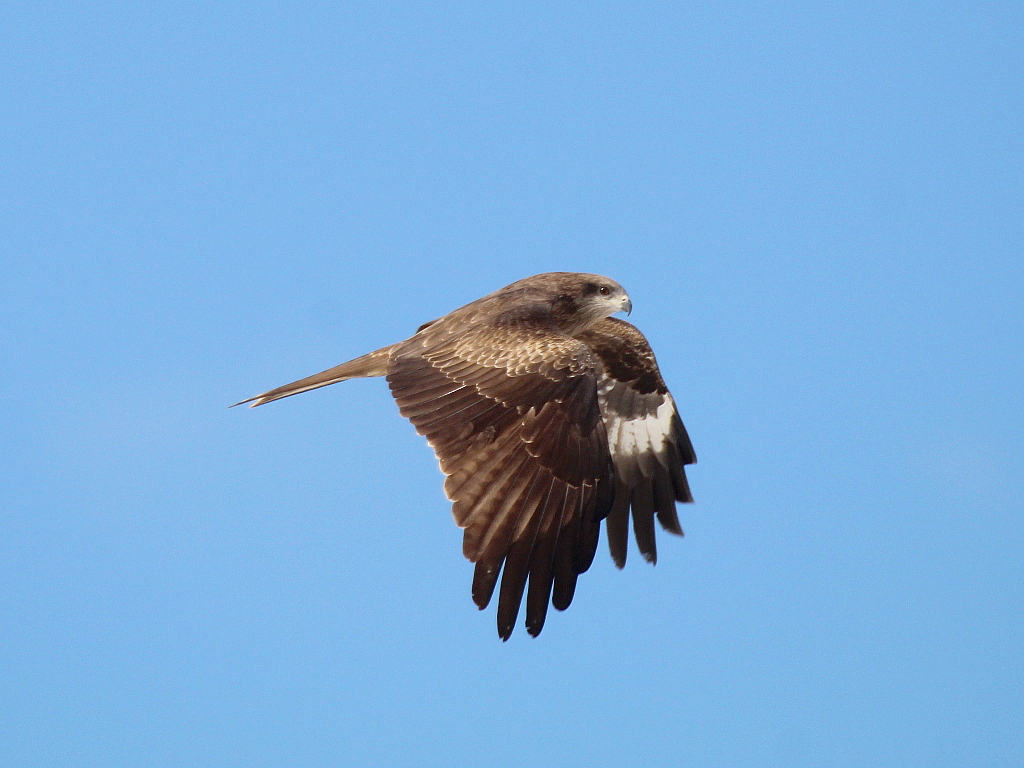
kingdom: Animalia
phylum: Chordata
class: Aves
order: Accipitriformes
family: Accipitridae
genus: Milvus
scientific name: Milvus migrans
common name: Black kite
